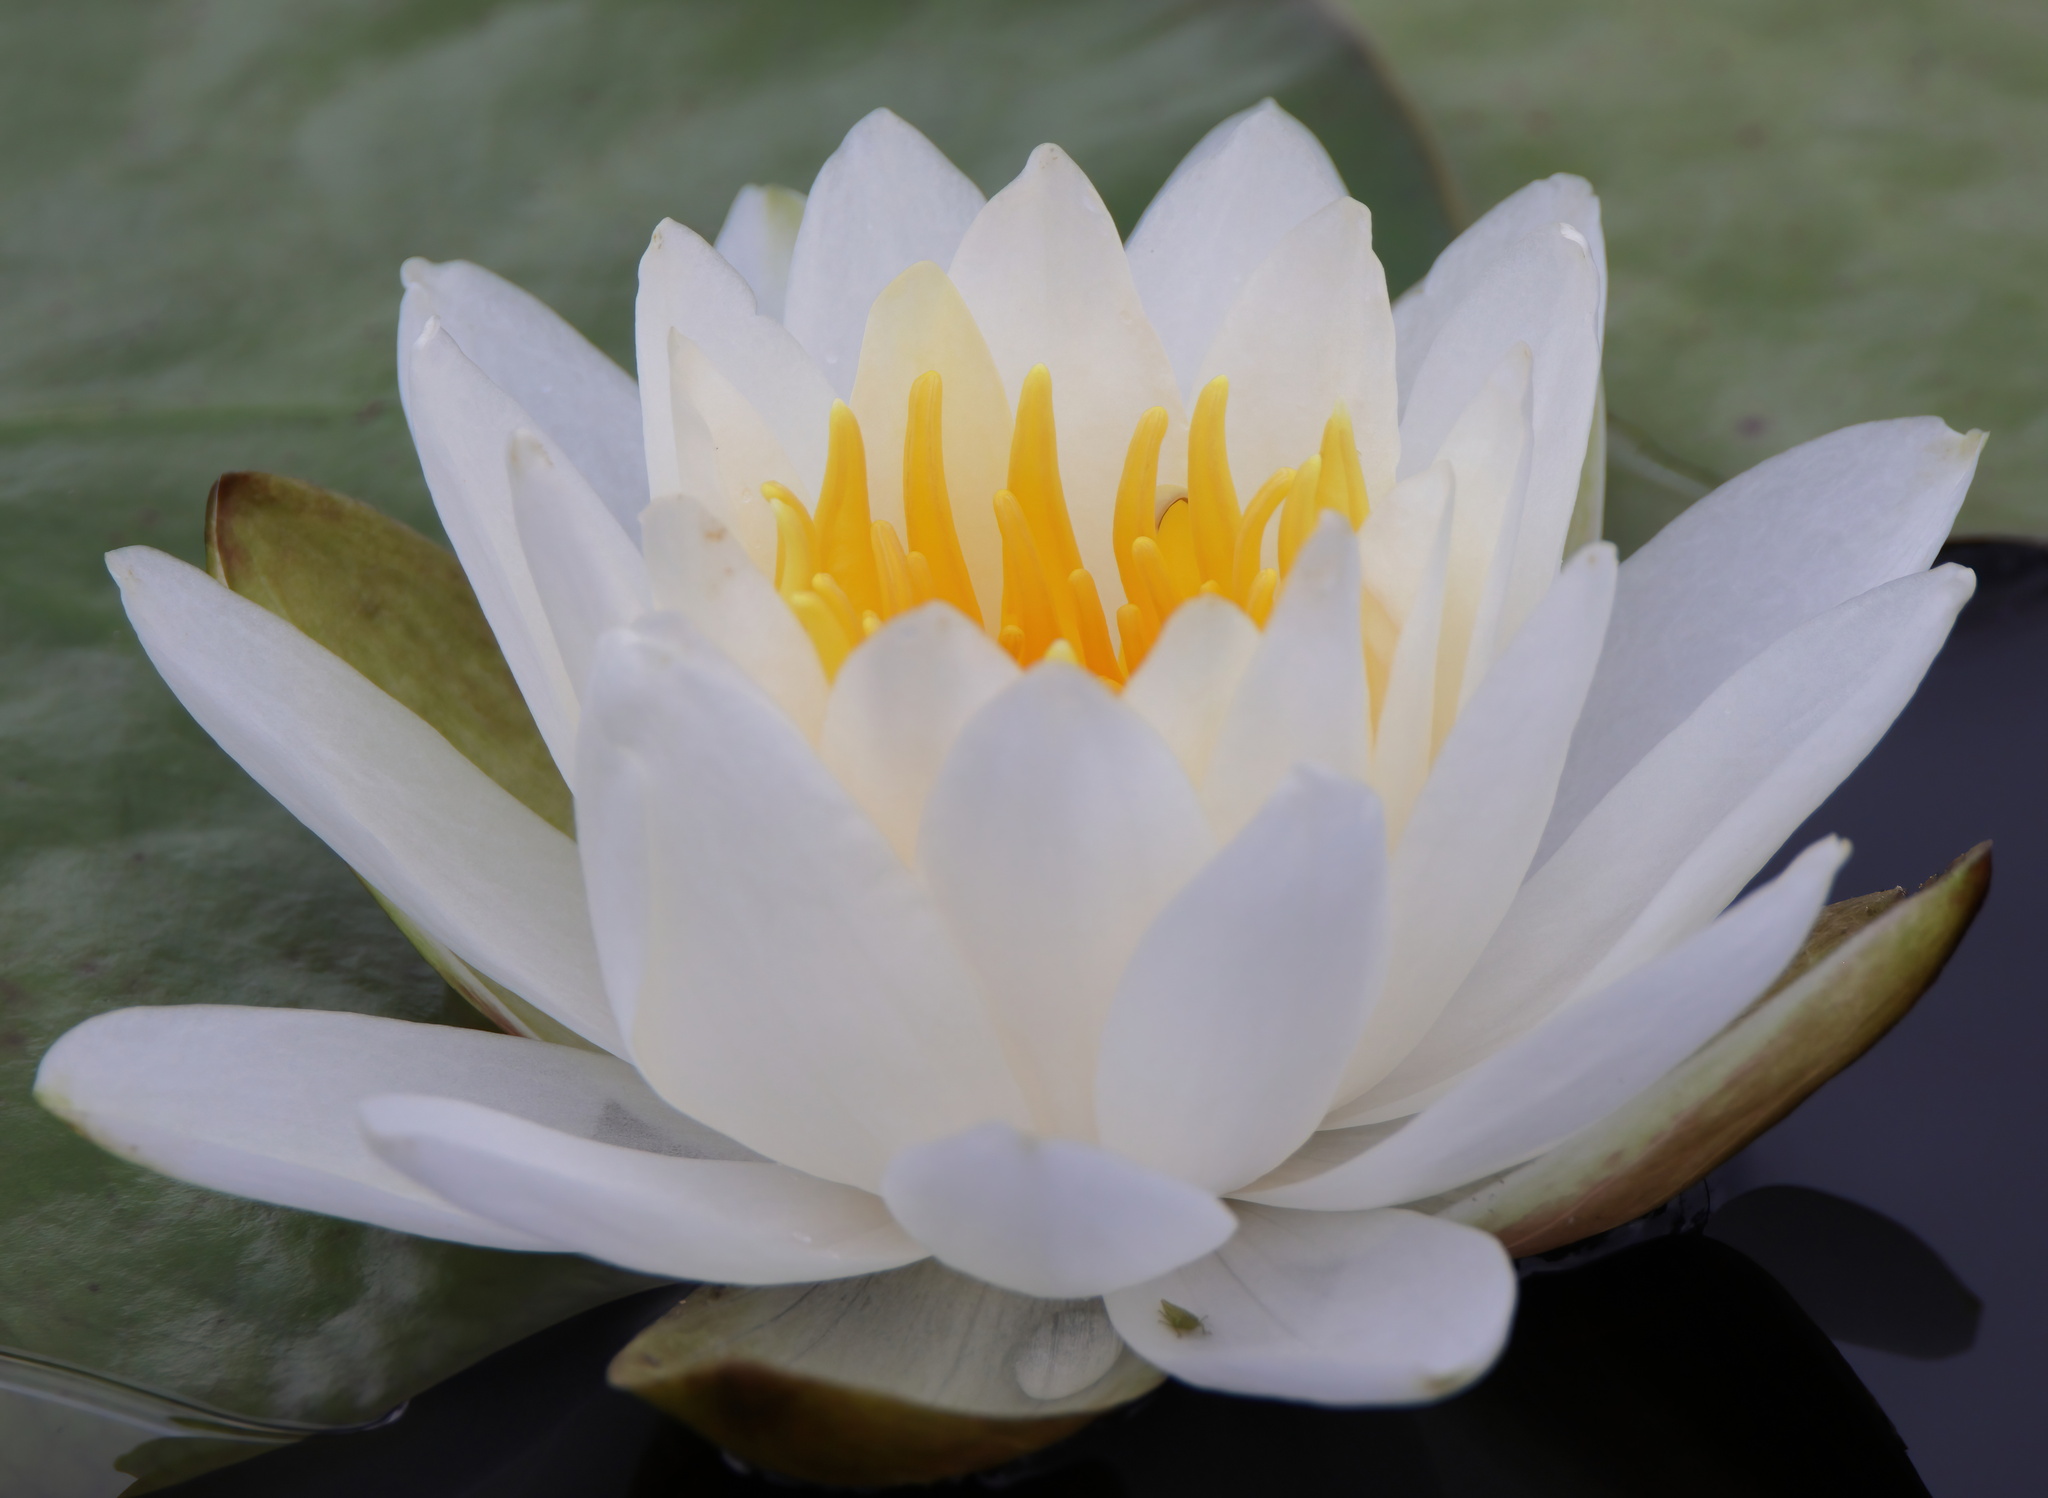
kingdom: Plantae
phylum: Tracheophyta
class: Magnoliopsida
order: Nymphaeales
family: Nymphaeaceae
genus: Nymphaea
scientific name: Nymphaea odorata
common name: Fragrant water-lily
